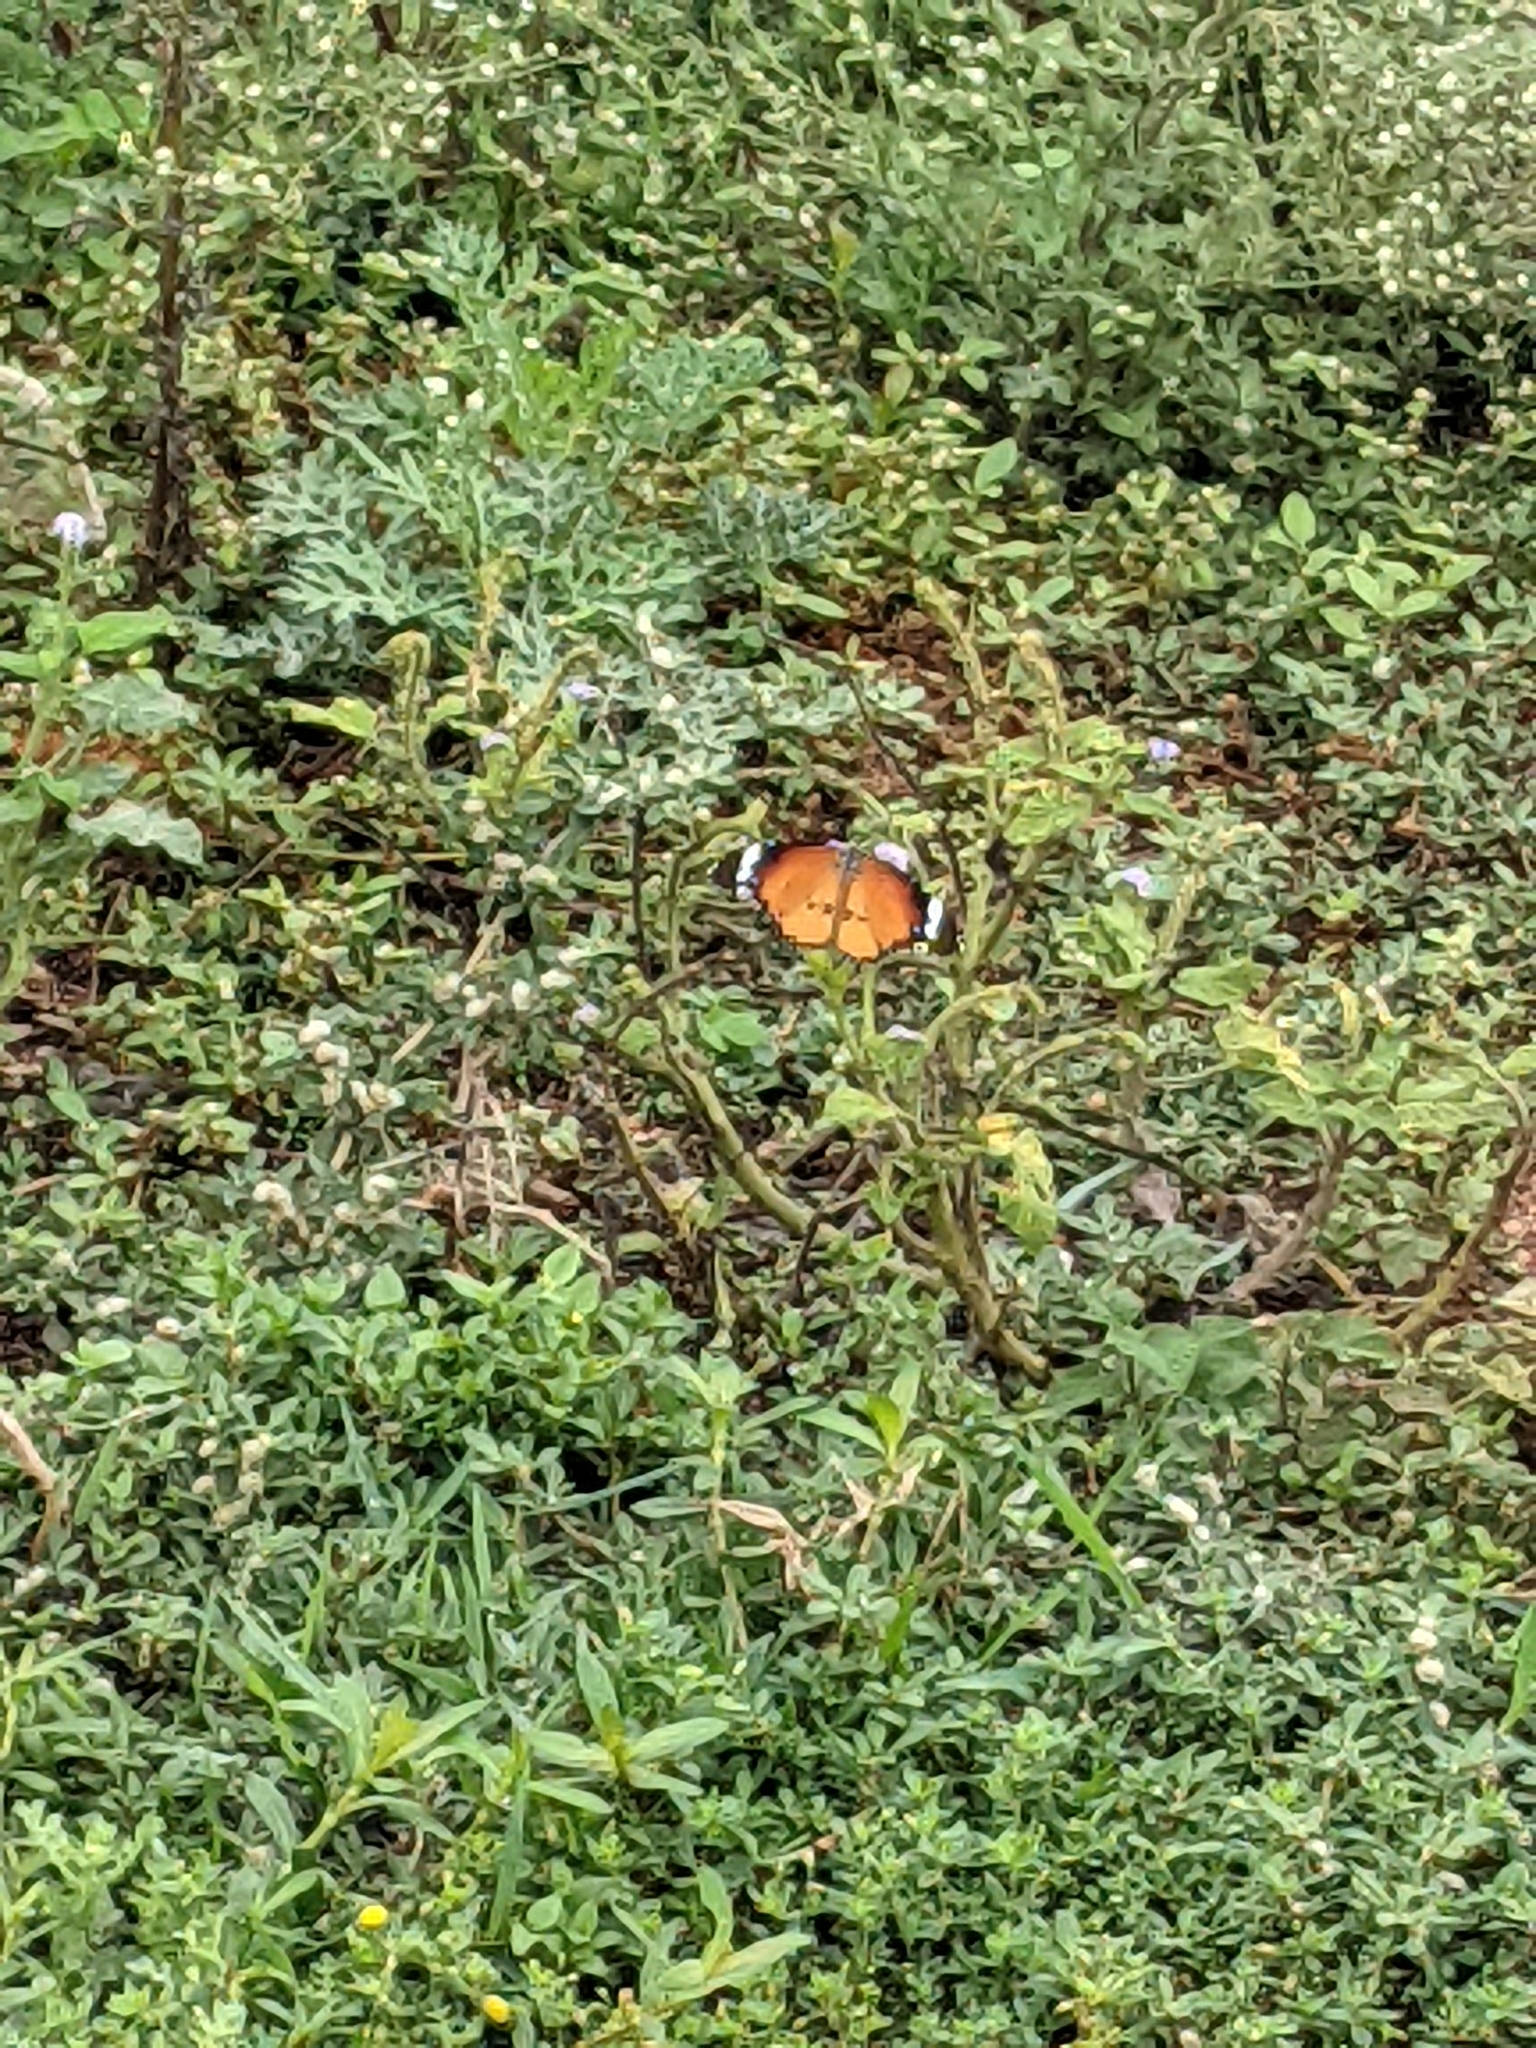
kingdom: Animalia
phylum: Arthropoda
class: Insecta
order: Lepidoptera
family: Nymphalidae
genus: Danaus
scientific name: Danaus chrysippus
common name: Plain tiger
